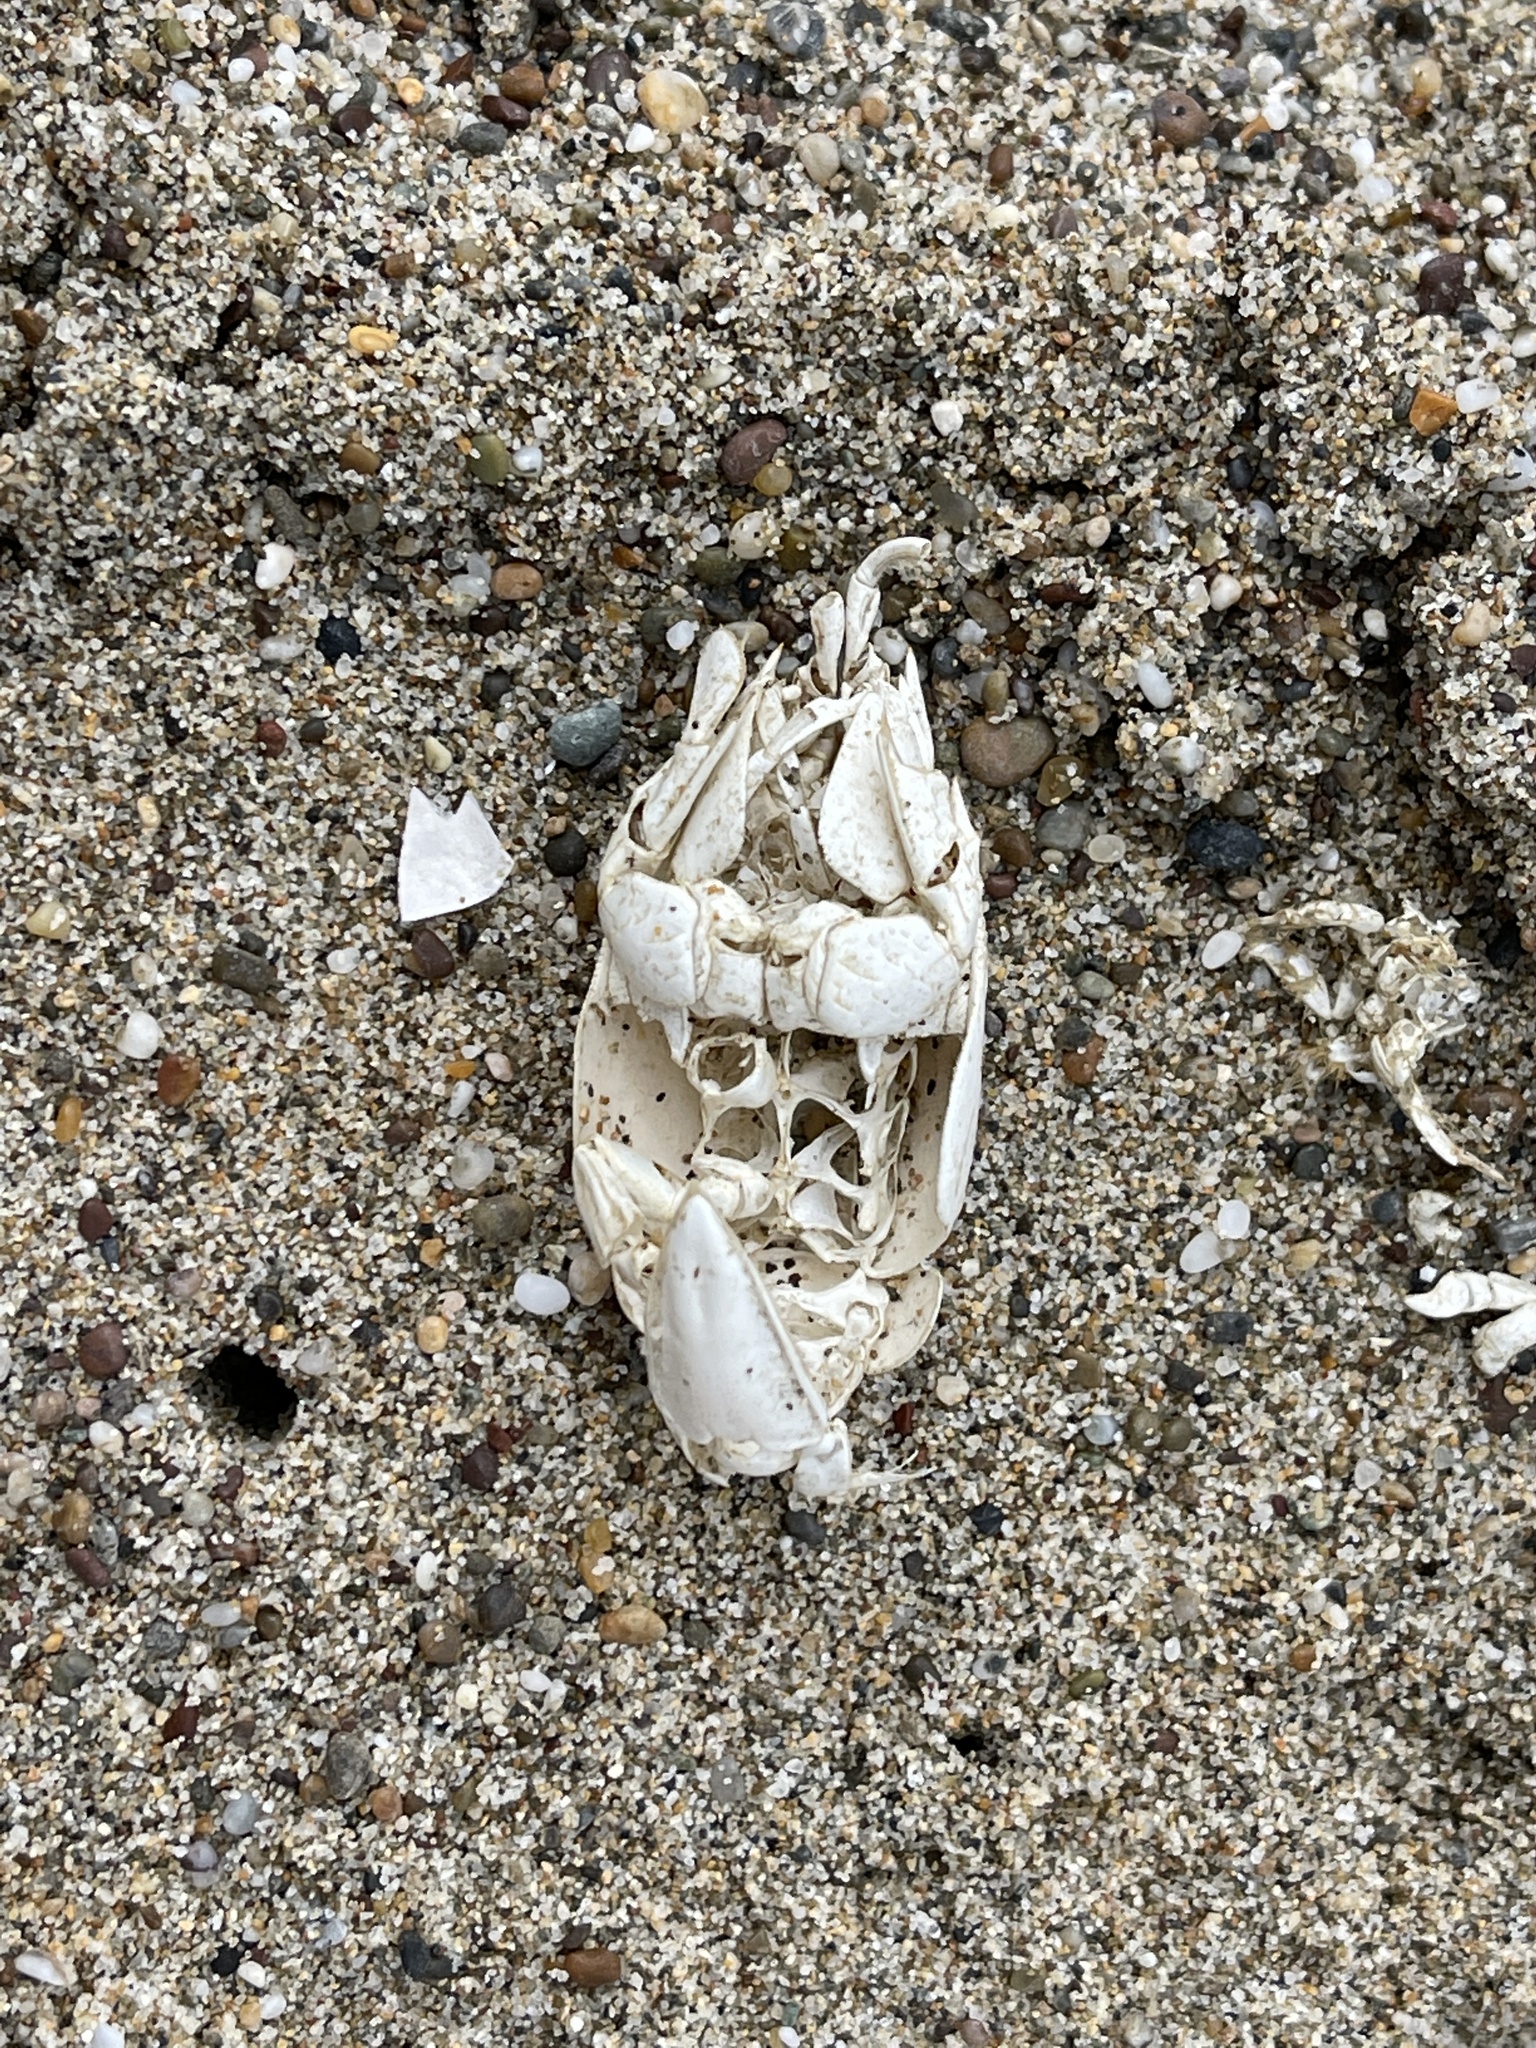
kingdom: Animalia
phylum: Arthropoda
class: Malacostraca
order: Decapoda
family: Hippidae
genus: Emerita
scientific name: Emerita analoga
